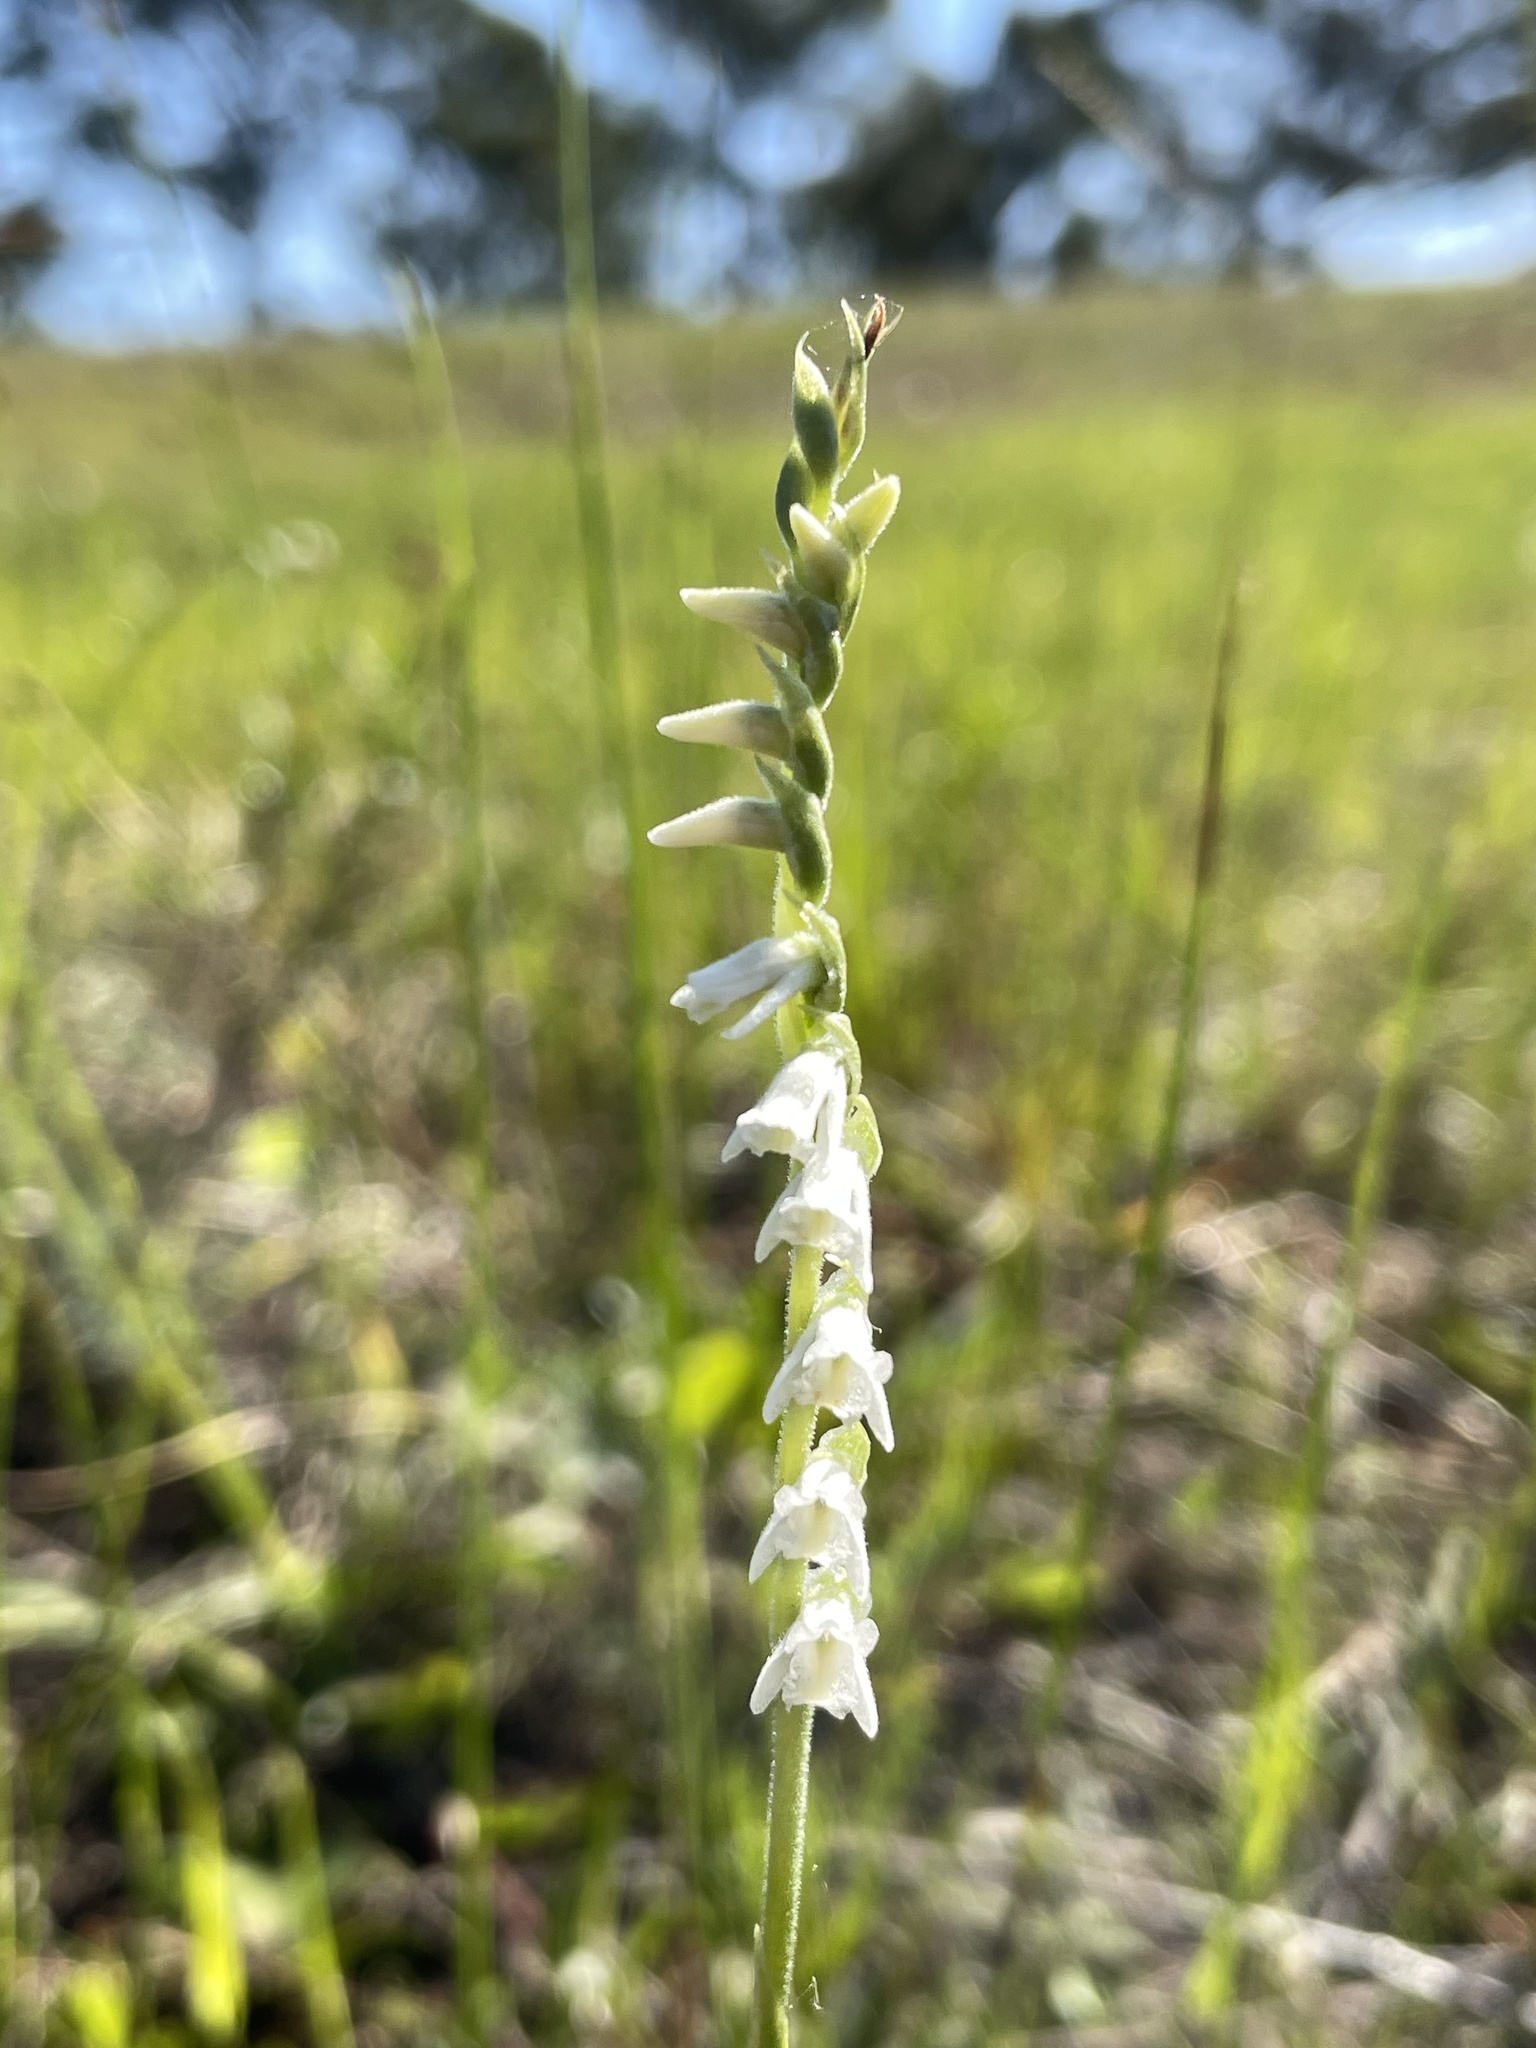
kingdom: Plantae
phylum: Tracheophyta
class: Liliopsida
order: Asparagales
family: Orchidaceae
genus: Spiranthes
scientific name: Spiranthes vernalis
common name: Spring ladies'-tresses
